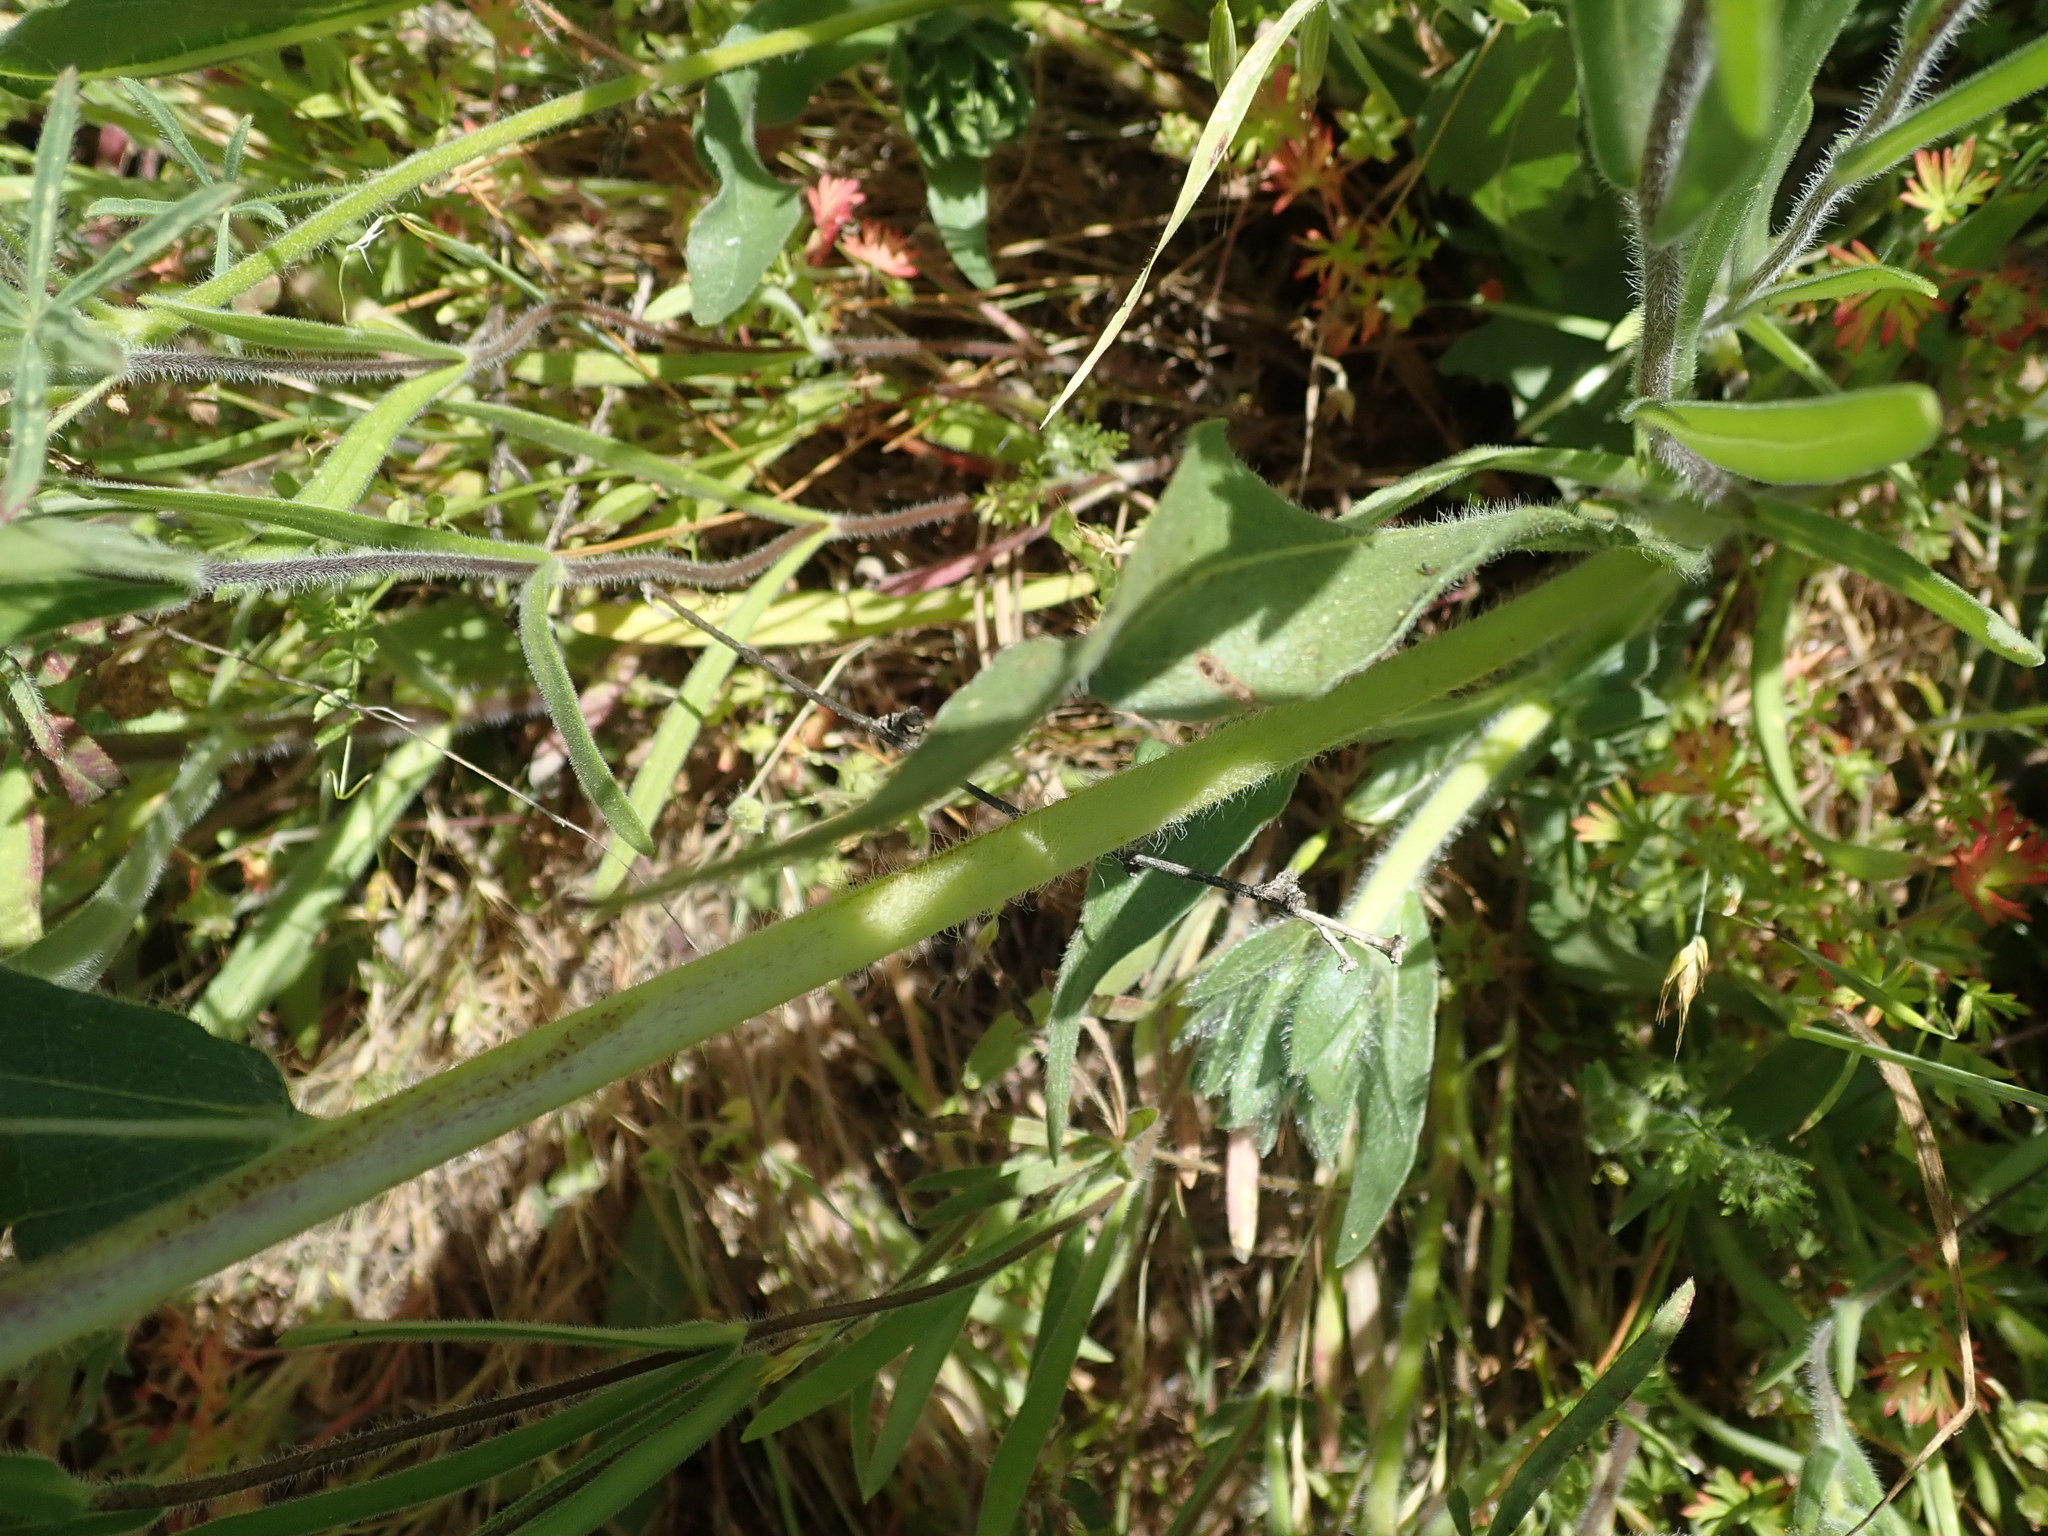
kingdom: Plantae
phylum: Tracheophyta
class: Magnoliopsida
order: Asterales
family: Asteraceae
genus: Wyethia
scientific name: Wyethia angustifolia
